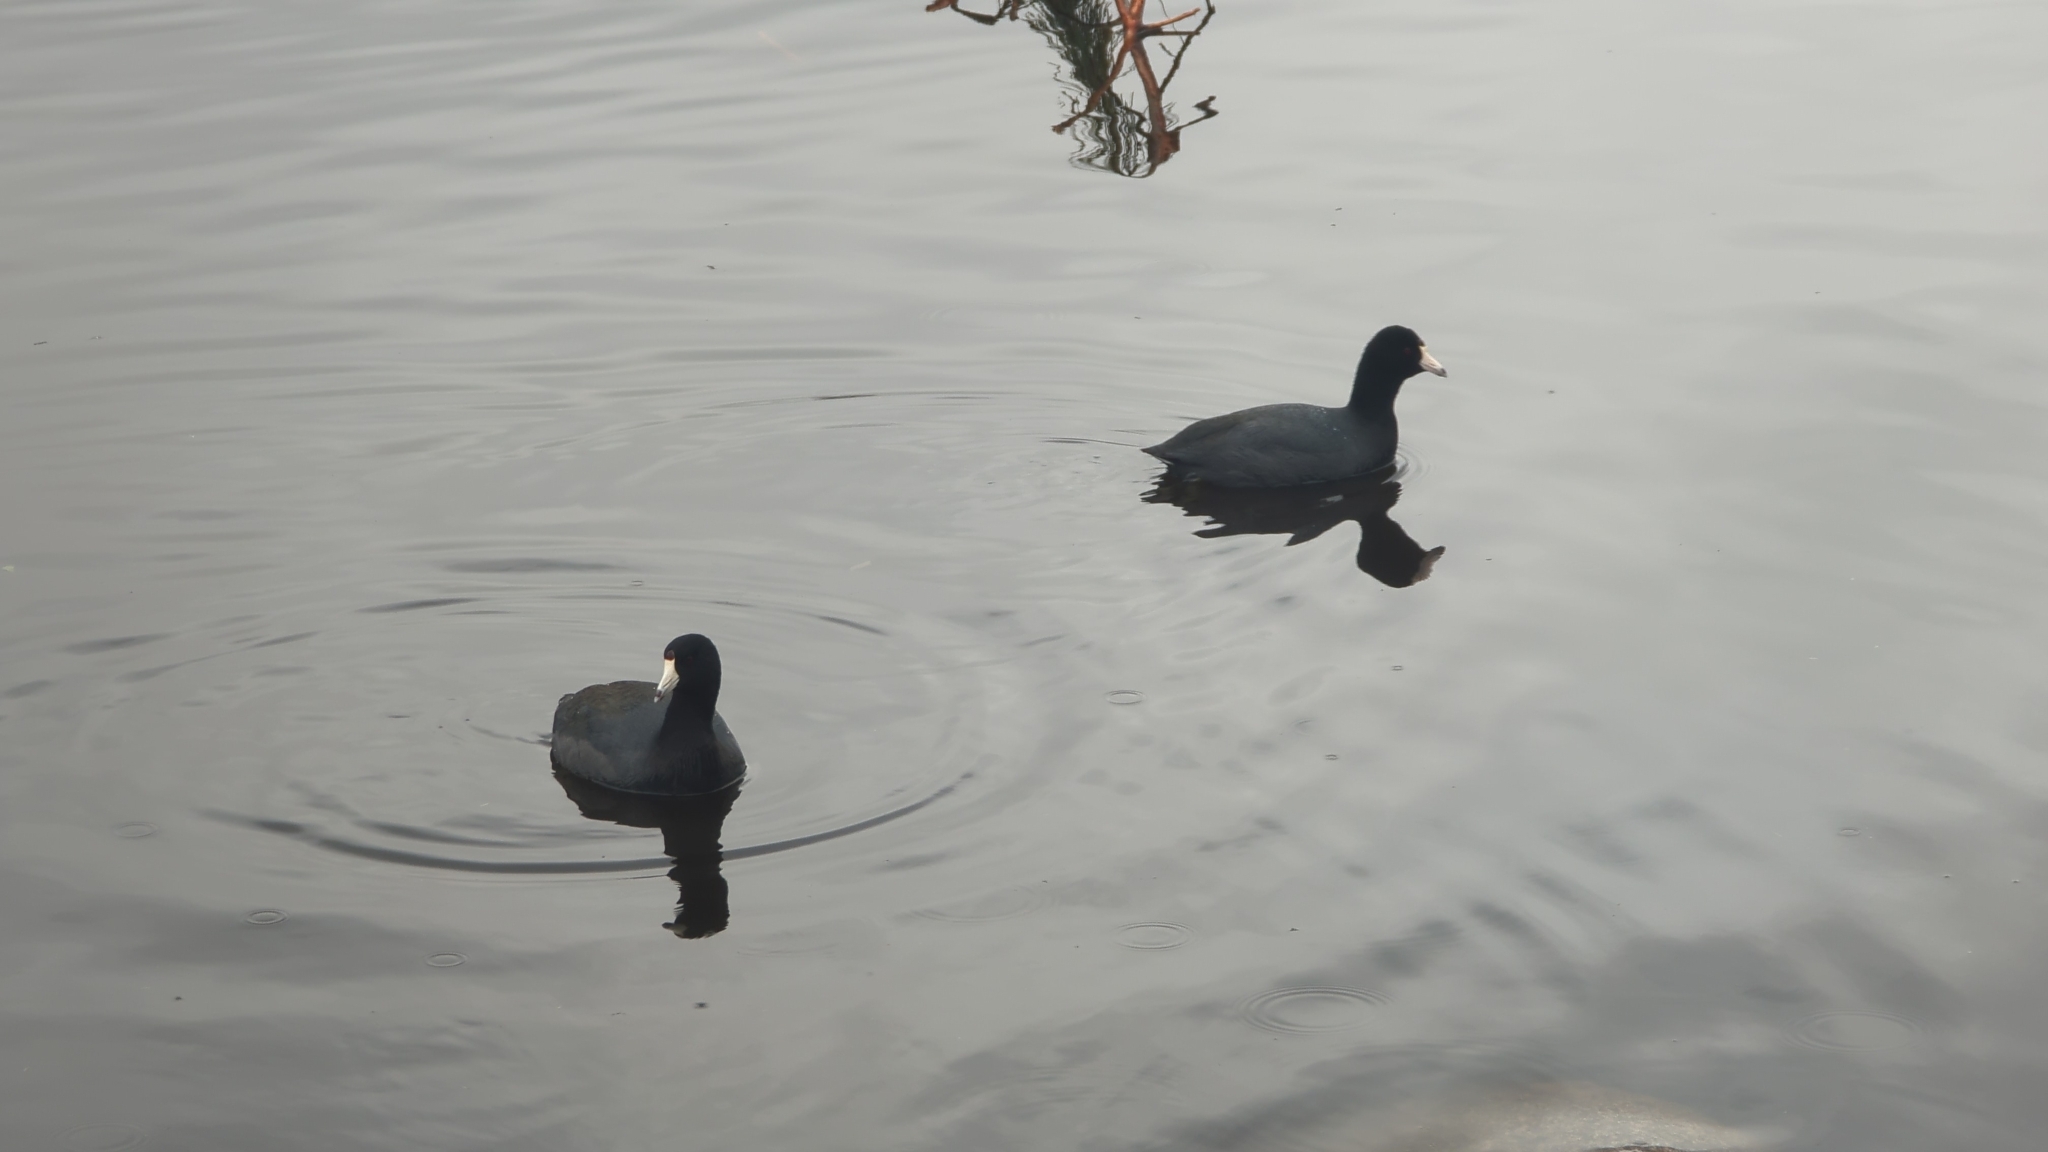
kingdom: Animalia
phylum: Chordata
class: Aves
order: Gruiformes
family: Rallidae
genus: Fulica
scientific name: Fulica americana
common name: American coot
